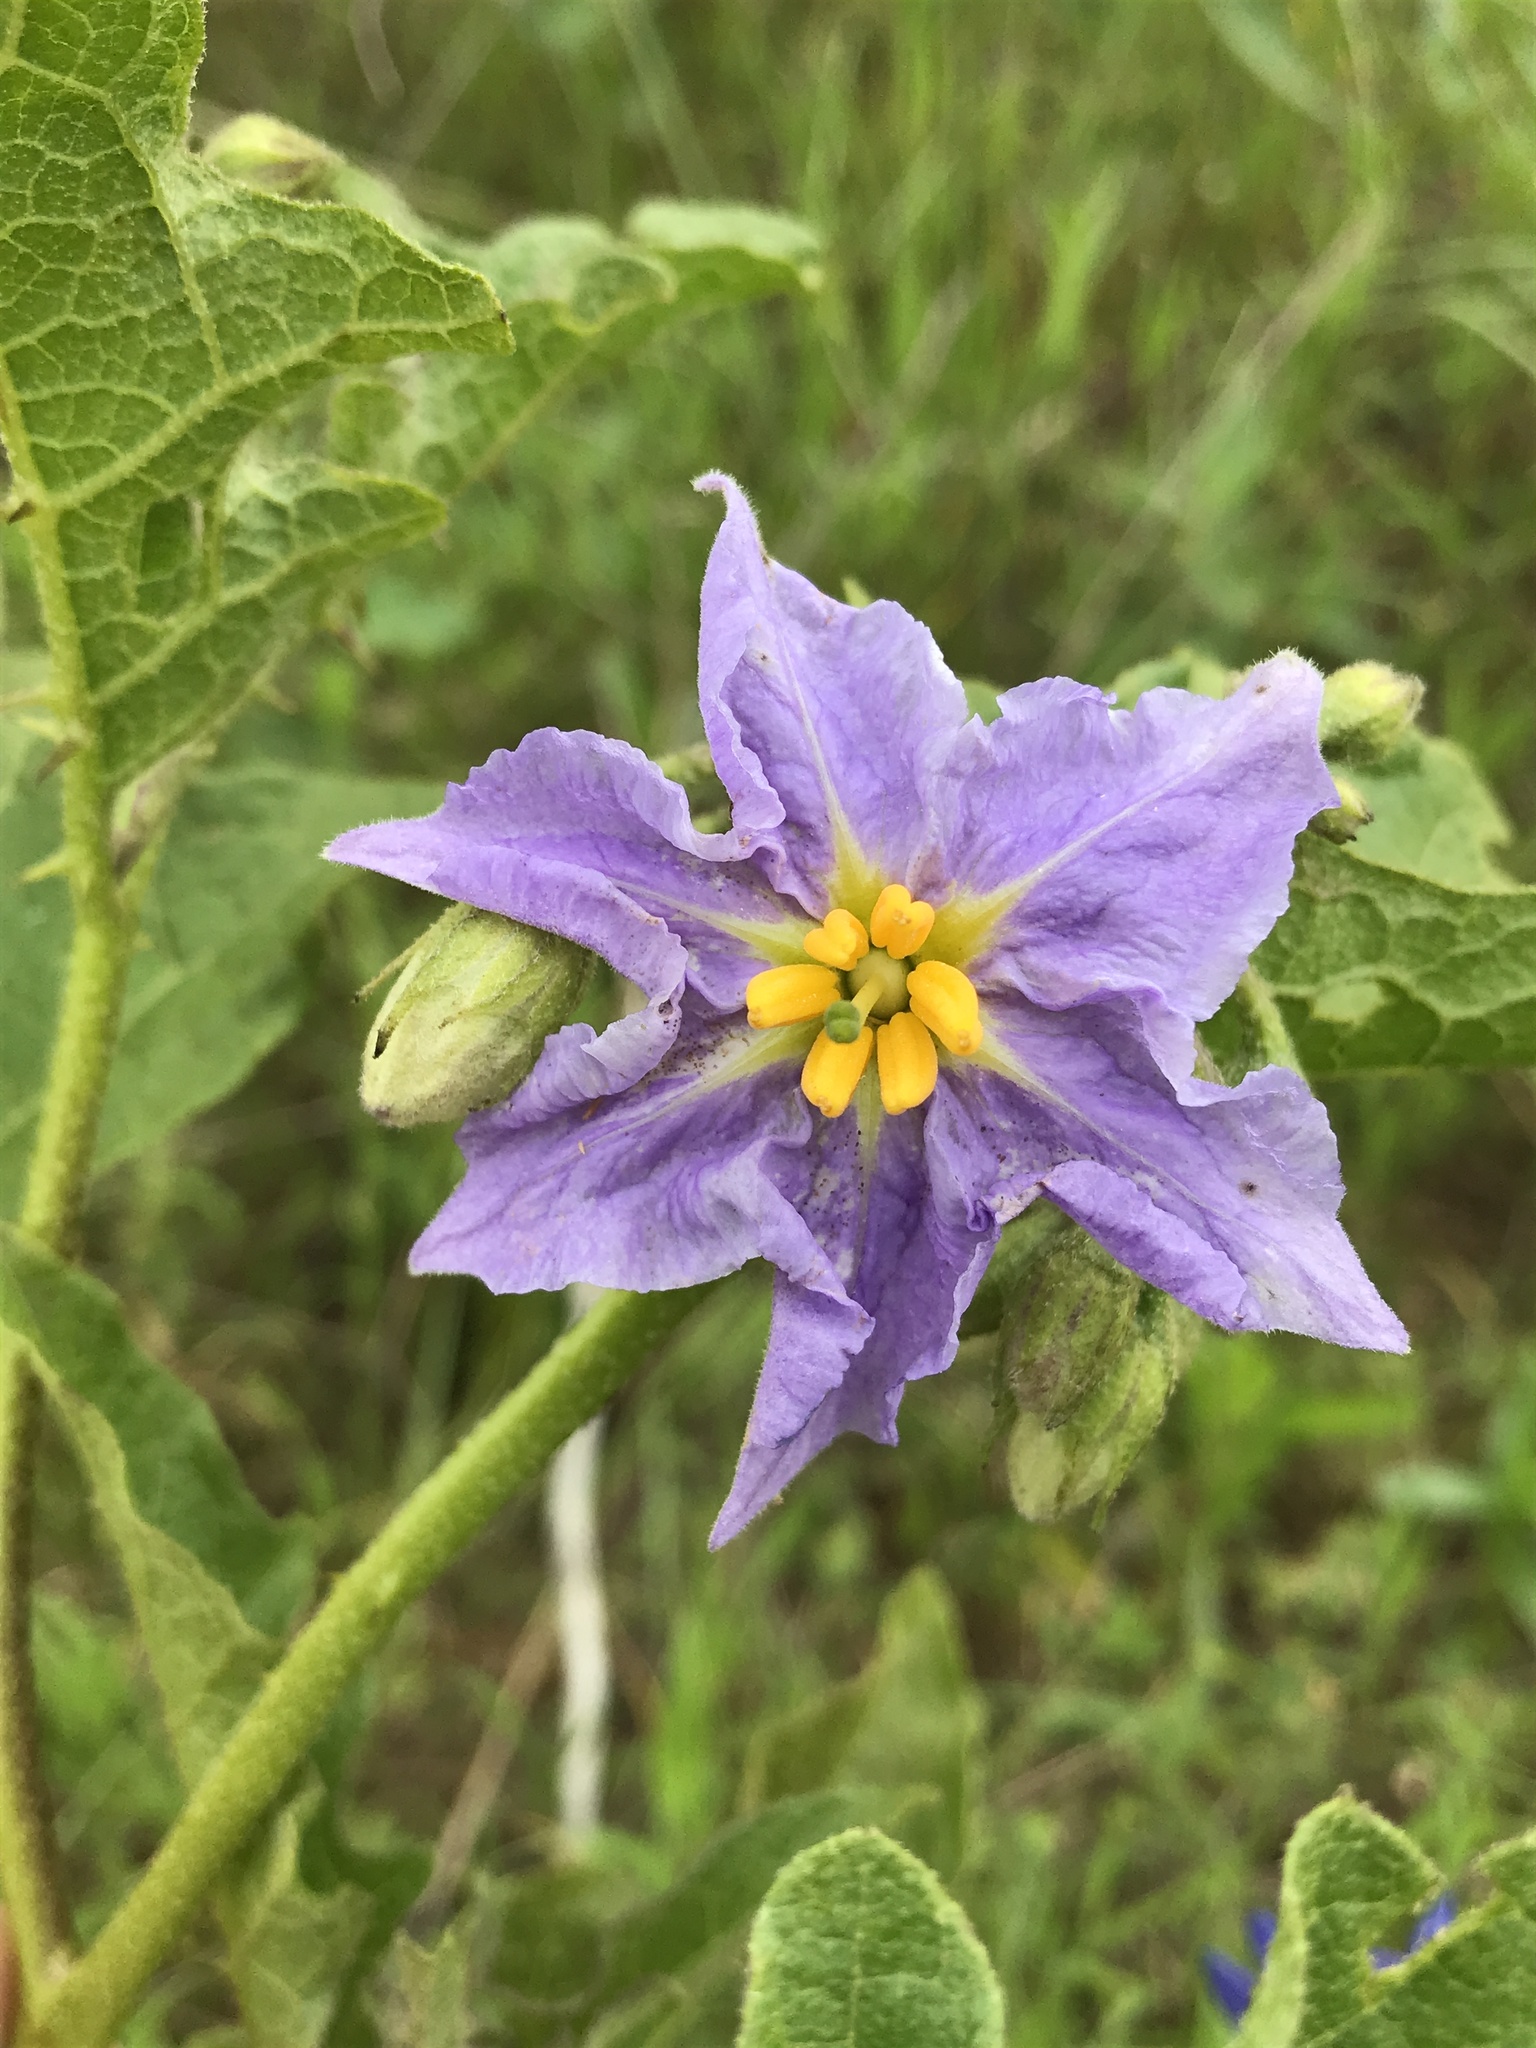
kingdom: Plantae
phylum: Tracheophyta
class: Magnoliopsida
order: Solanales
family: Solanaceae
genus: Solanum
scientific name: Solanum dimidiatum
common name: Carolina horse-nettle
